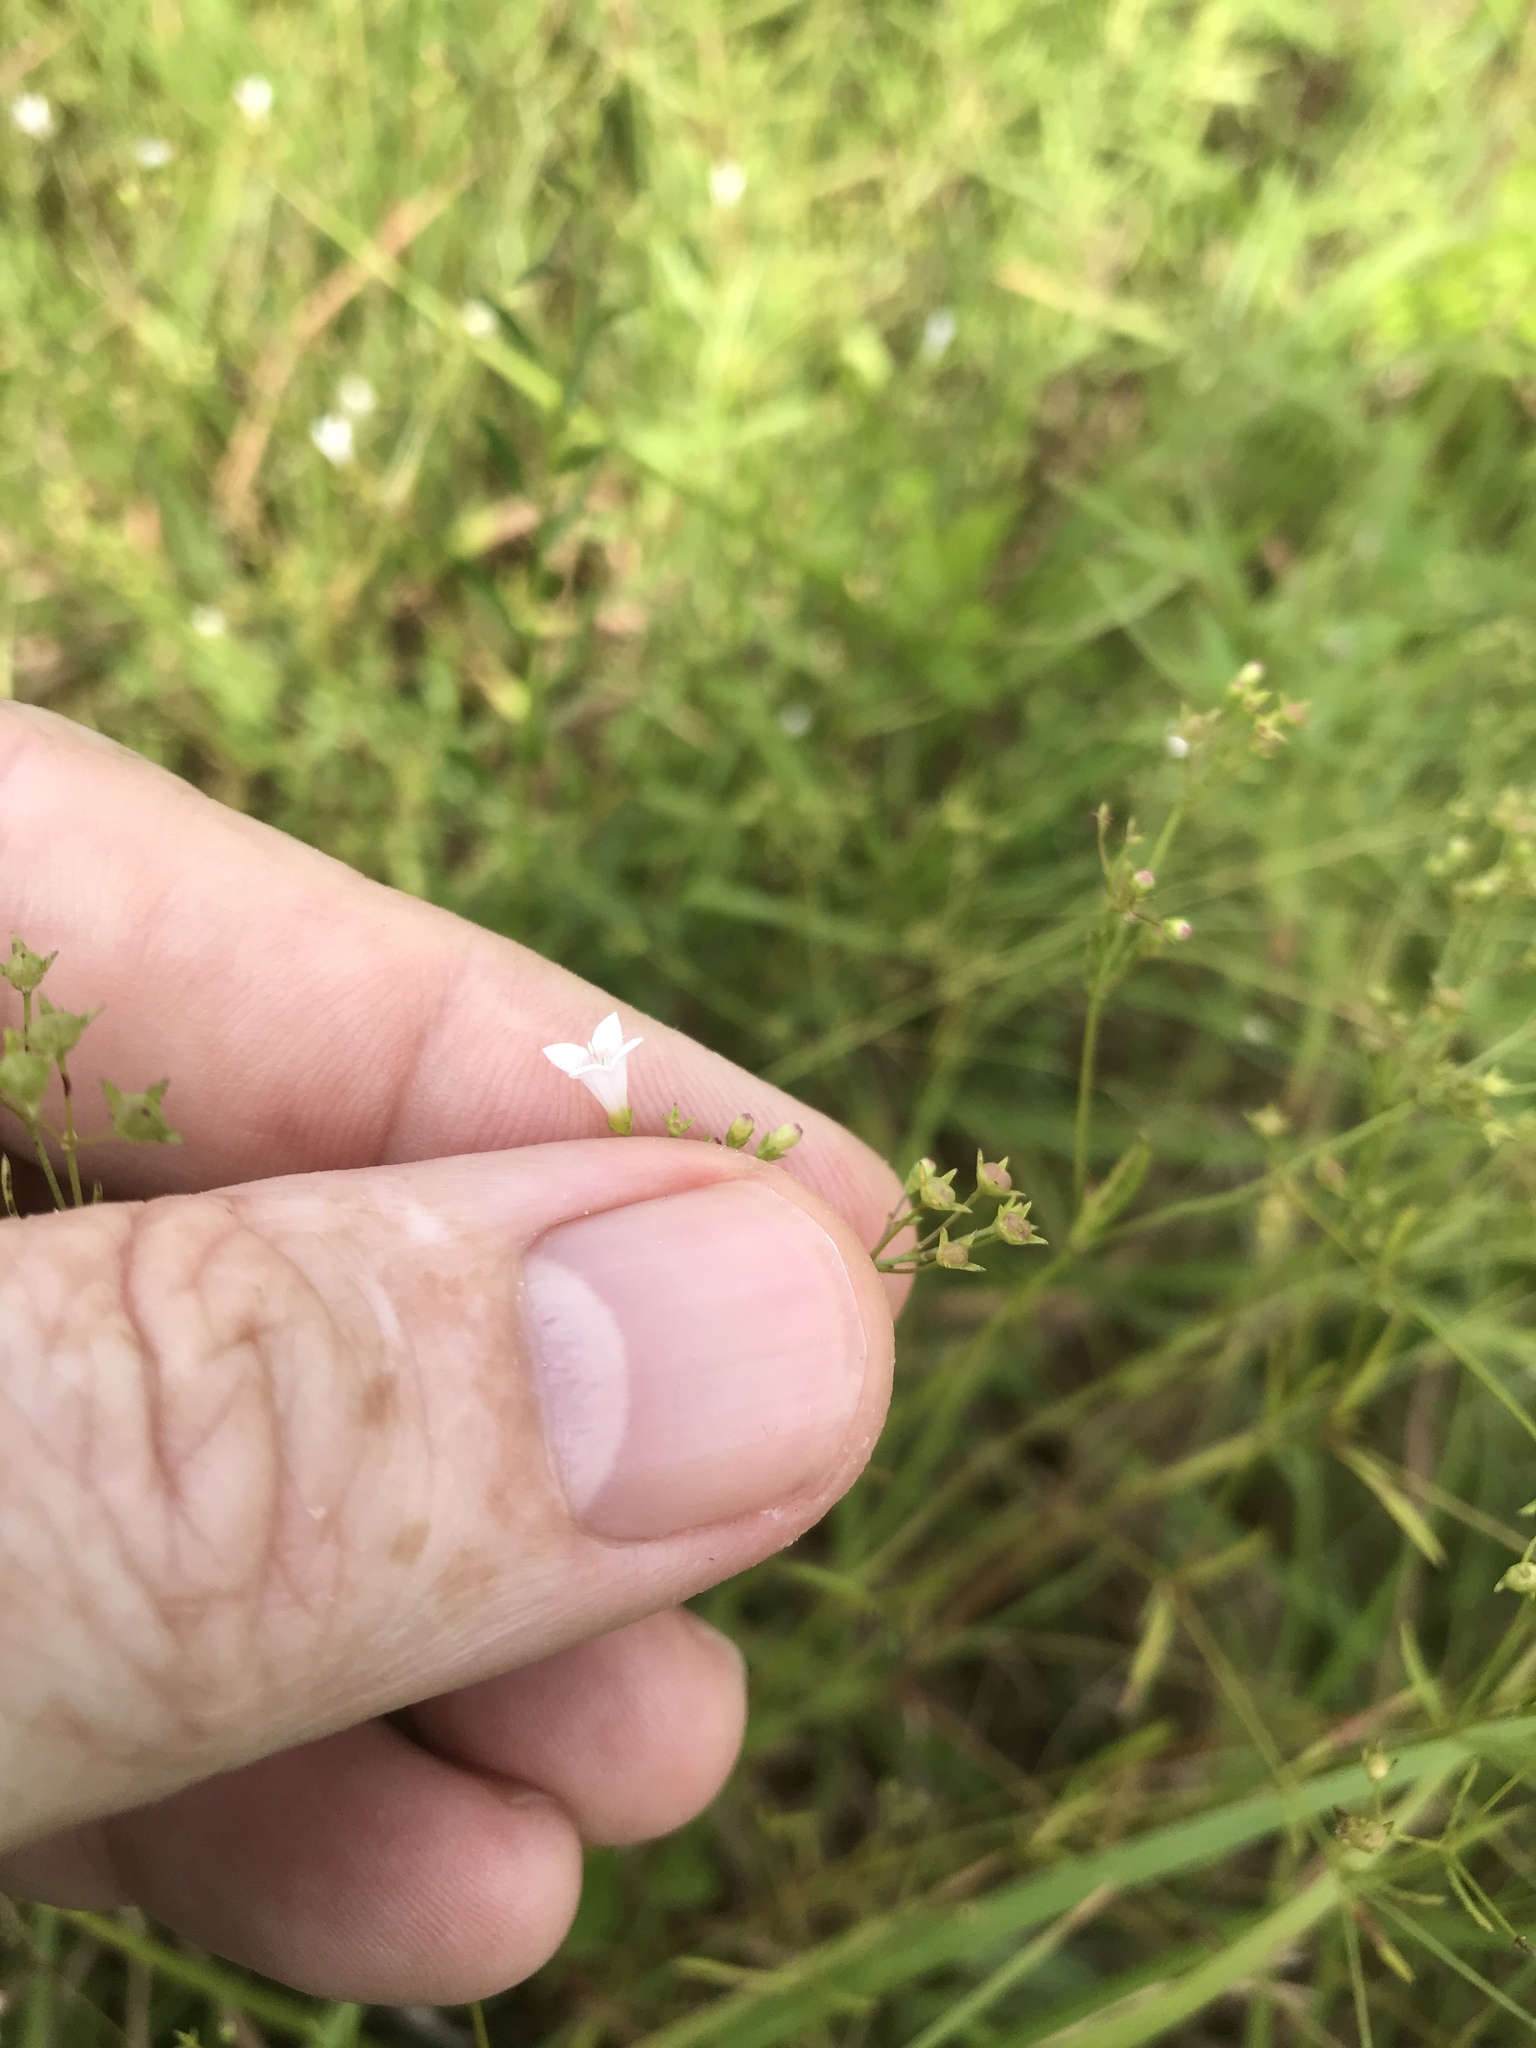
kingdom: Plantae
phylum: Tracheophyta
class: Magnoliopsida
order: Gentianales
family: Rubiaceae
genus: Houstonia
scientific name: Houstonia longifolia
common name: Long-leaved bluets
